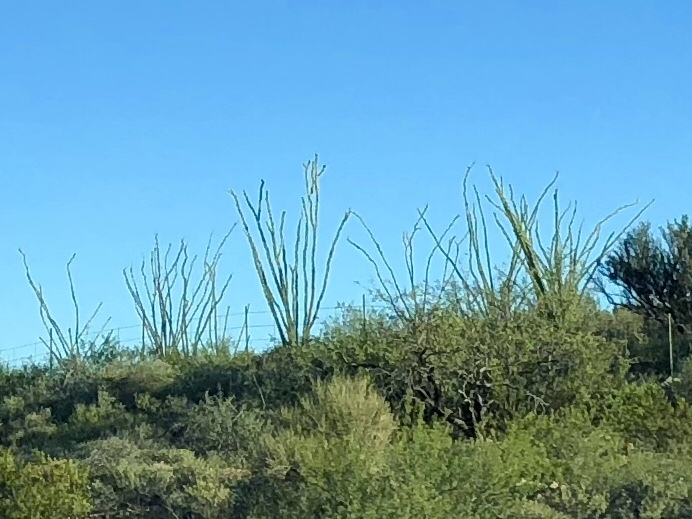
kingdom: Plantae
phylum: Tracheophyta
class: Magnoliopsida
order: Ericales
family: Fouquieriaceae
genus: Fouquieria
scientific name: Fouquieria splendens
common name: Vine-cactus
